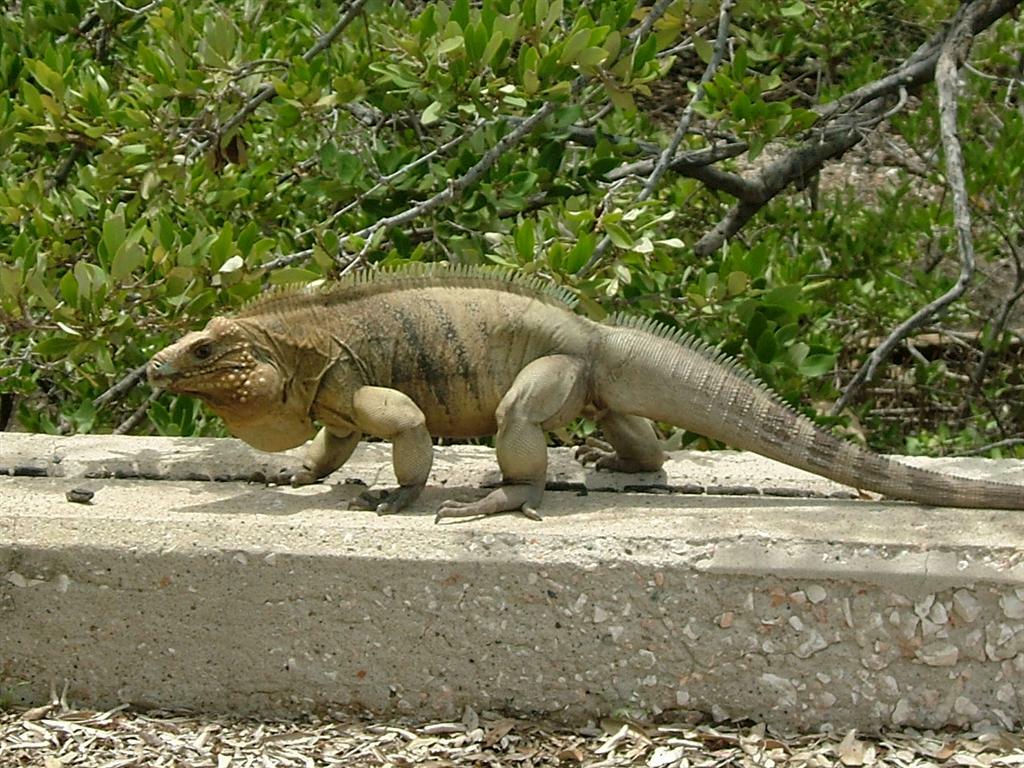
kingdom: Animalia
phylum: Chordata
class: Squamata
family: Iguanidae
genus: Cyclura
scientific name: Cyclura nubila
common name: Cayman islands ground iguana
